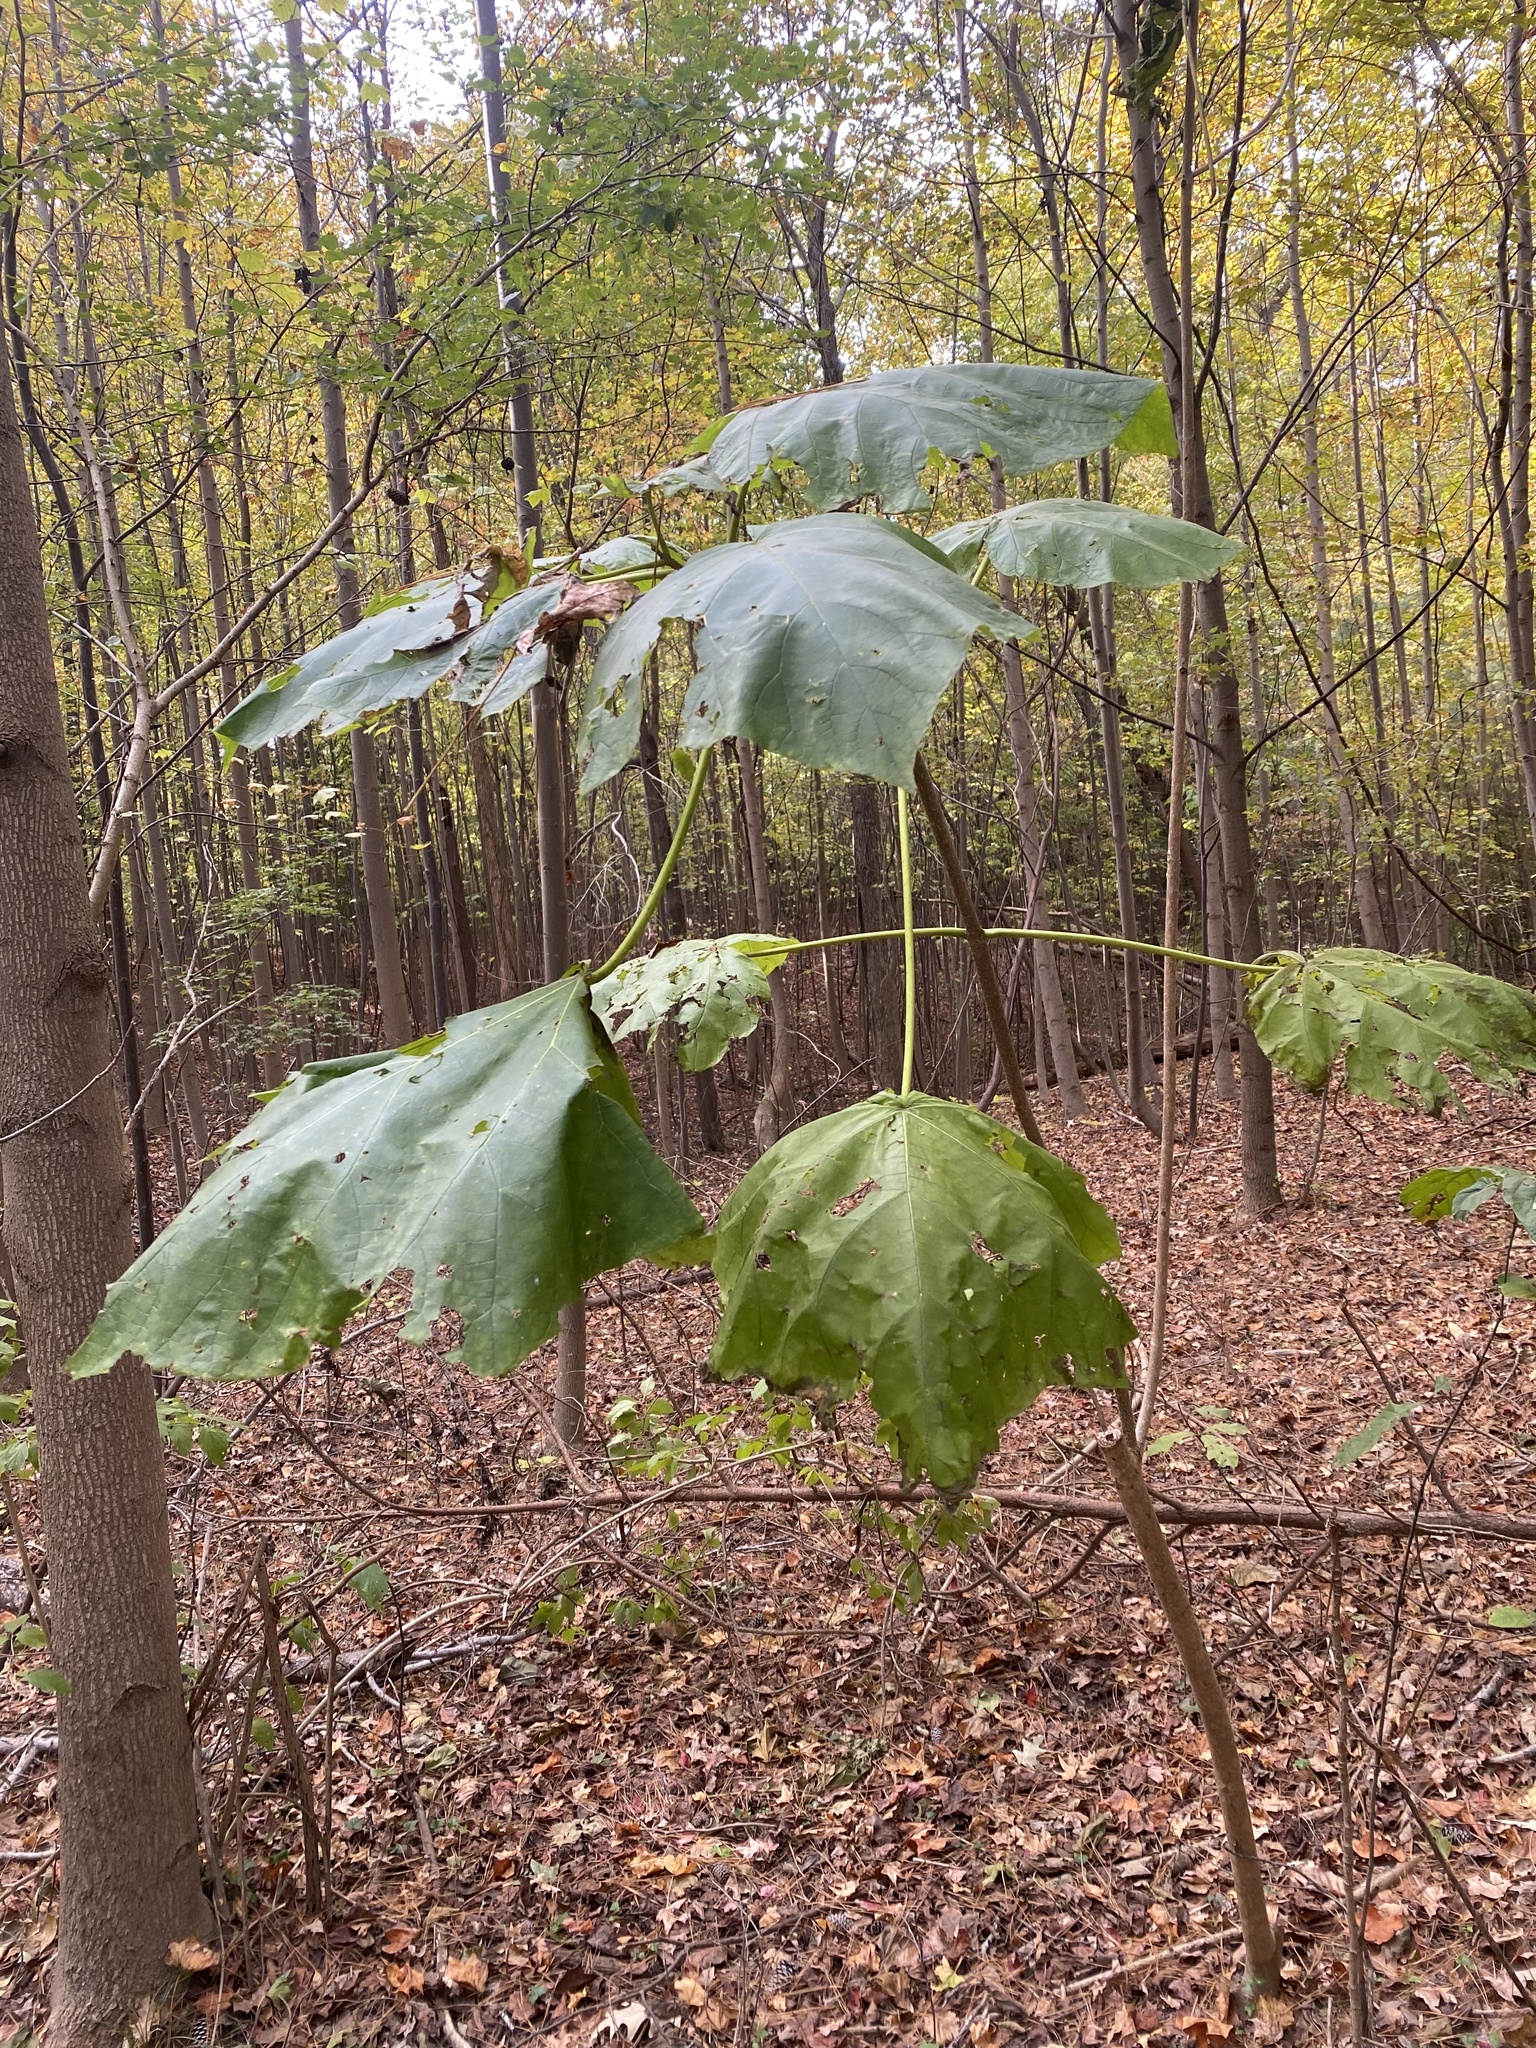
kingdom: Plantae
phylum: Tracheophyta
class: Magnoliopsida
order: Lamiales
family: Paulowniaceae
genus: Paulownia
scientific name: Paulownia tomentosa
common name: Foxglove-tree
